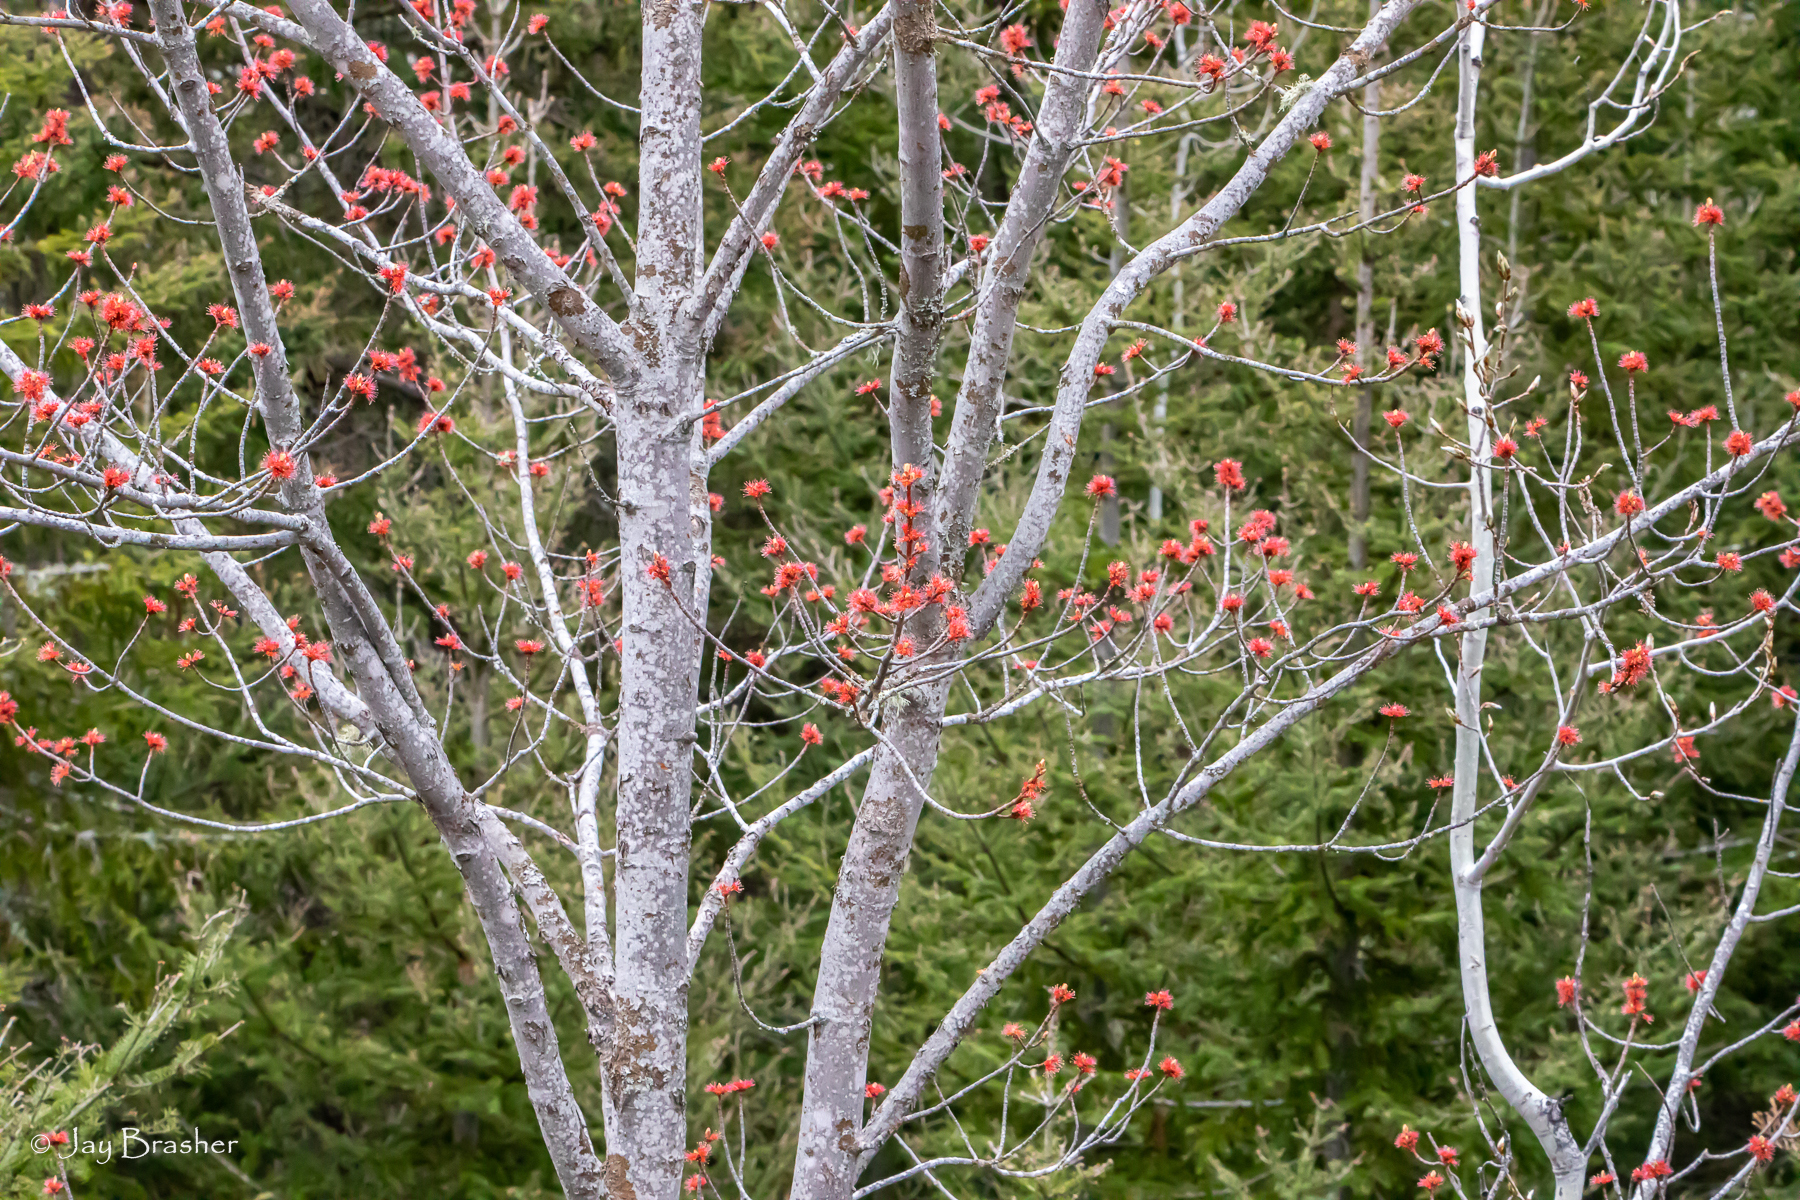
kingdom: Plantae
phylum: Tracheophyta
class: Magnoliopsida
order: Sapindales
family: Sapindaceae
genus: Acer
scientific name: Acer rubrum
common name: Red maple
